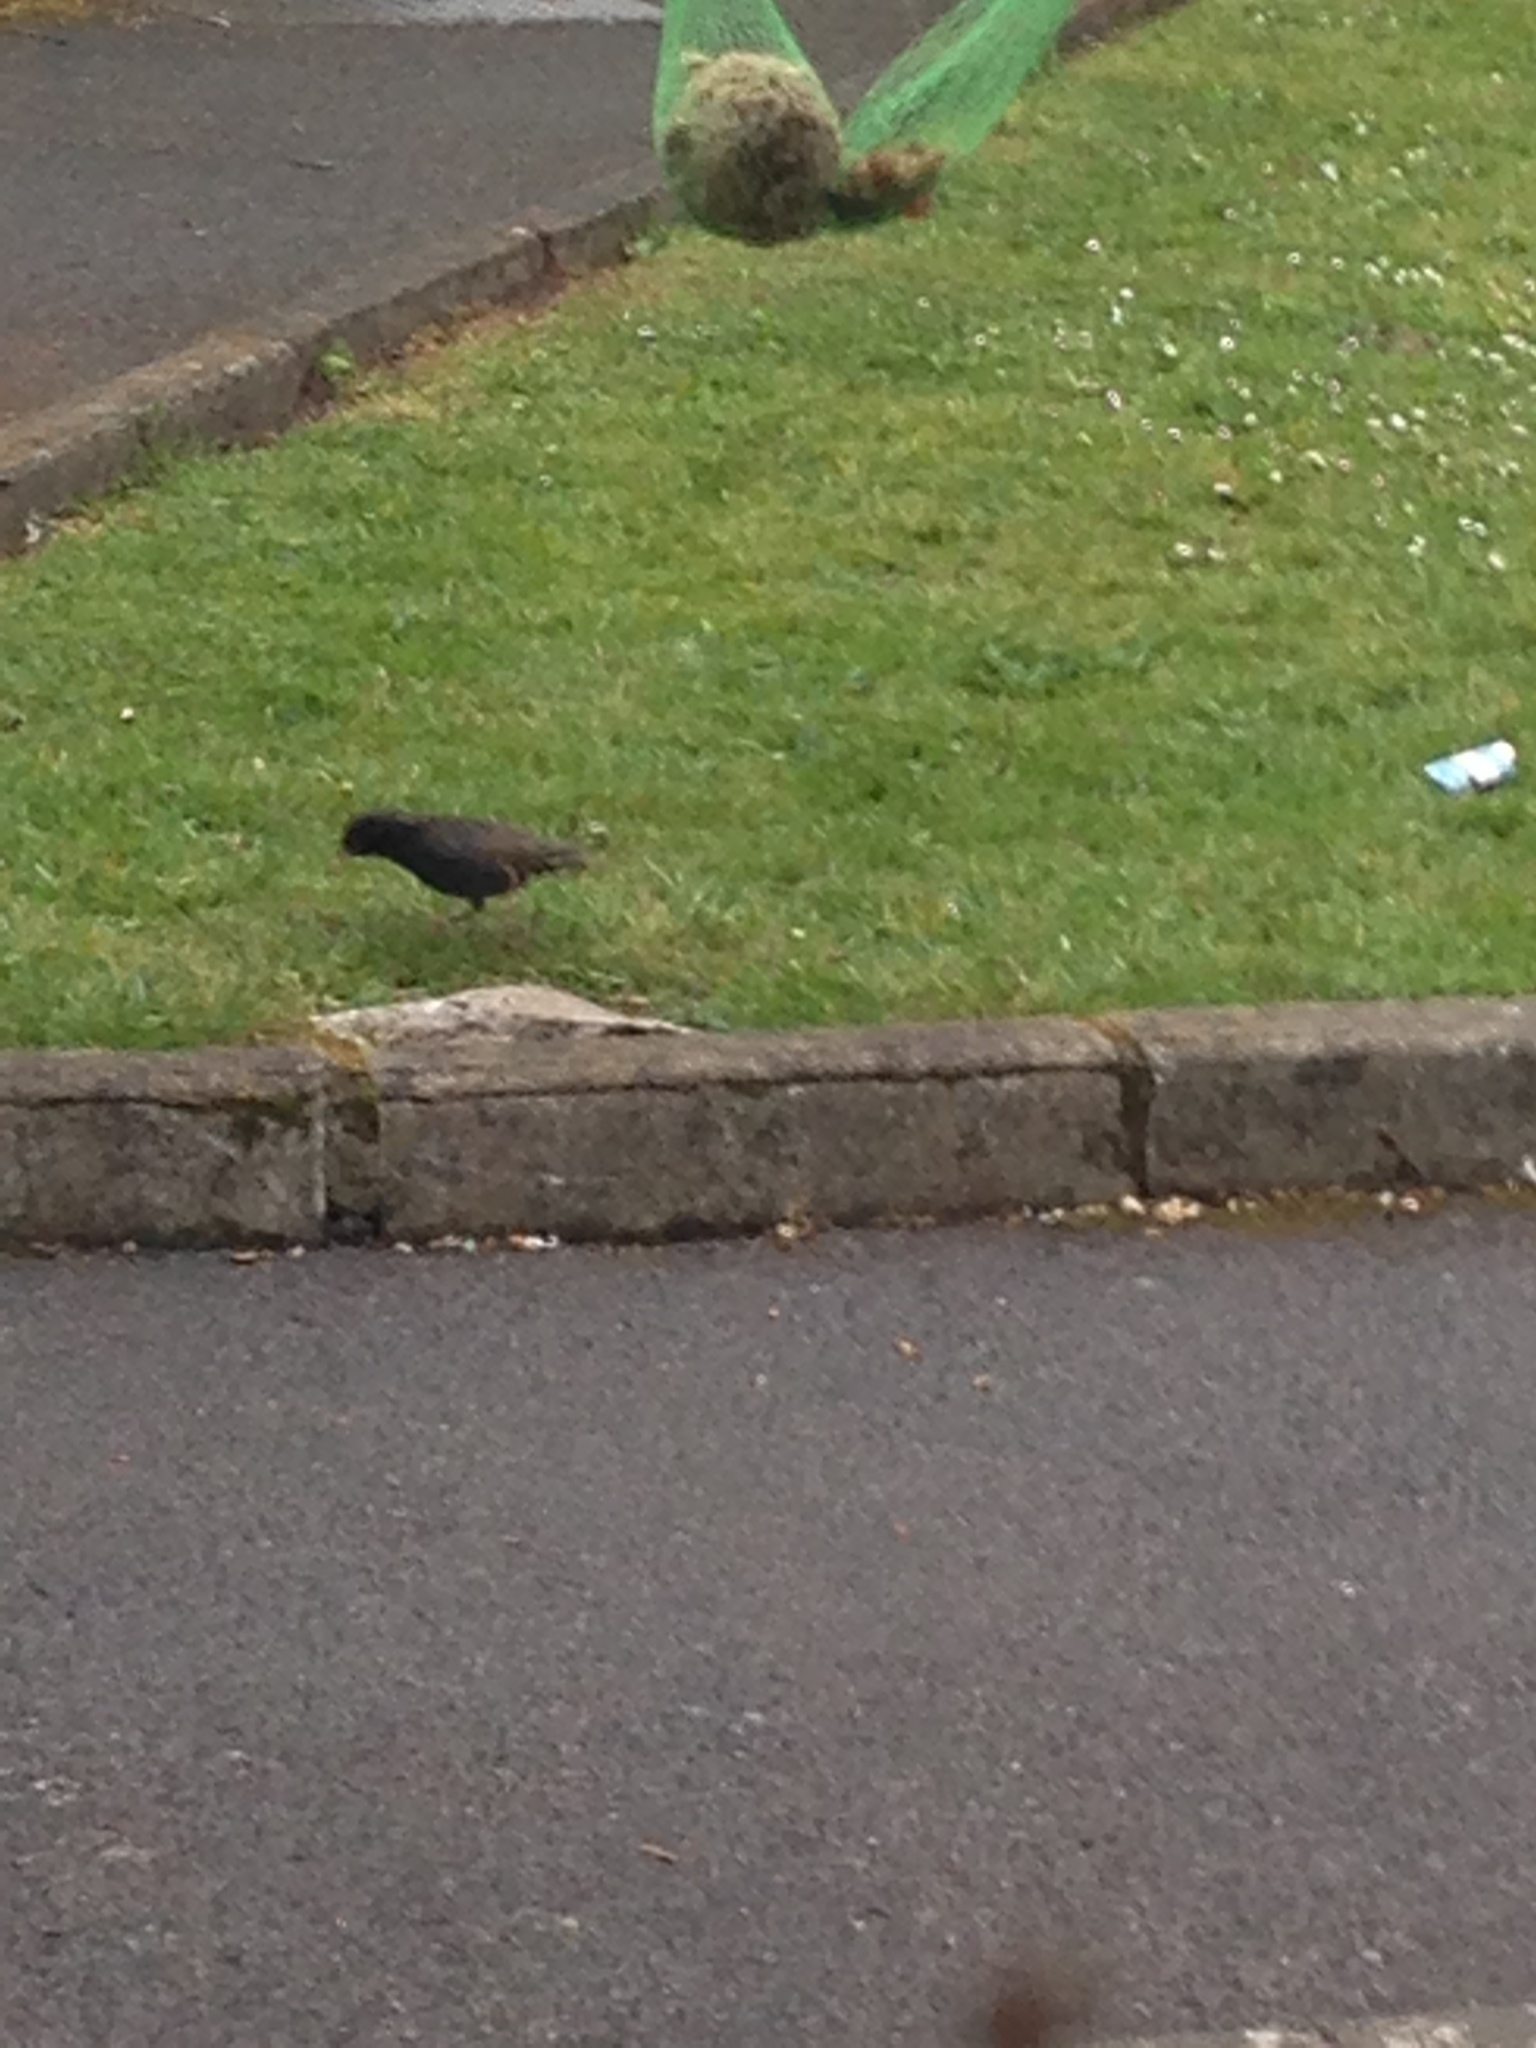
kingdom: Animalia
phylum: Chordata
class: Aves
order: Passeriformes
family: Sturnidae
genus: Sturnus
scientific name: Sturnus vulgaris
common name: Common starling
